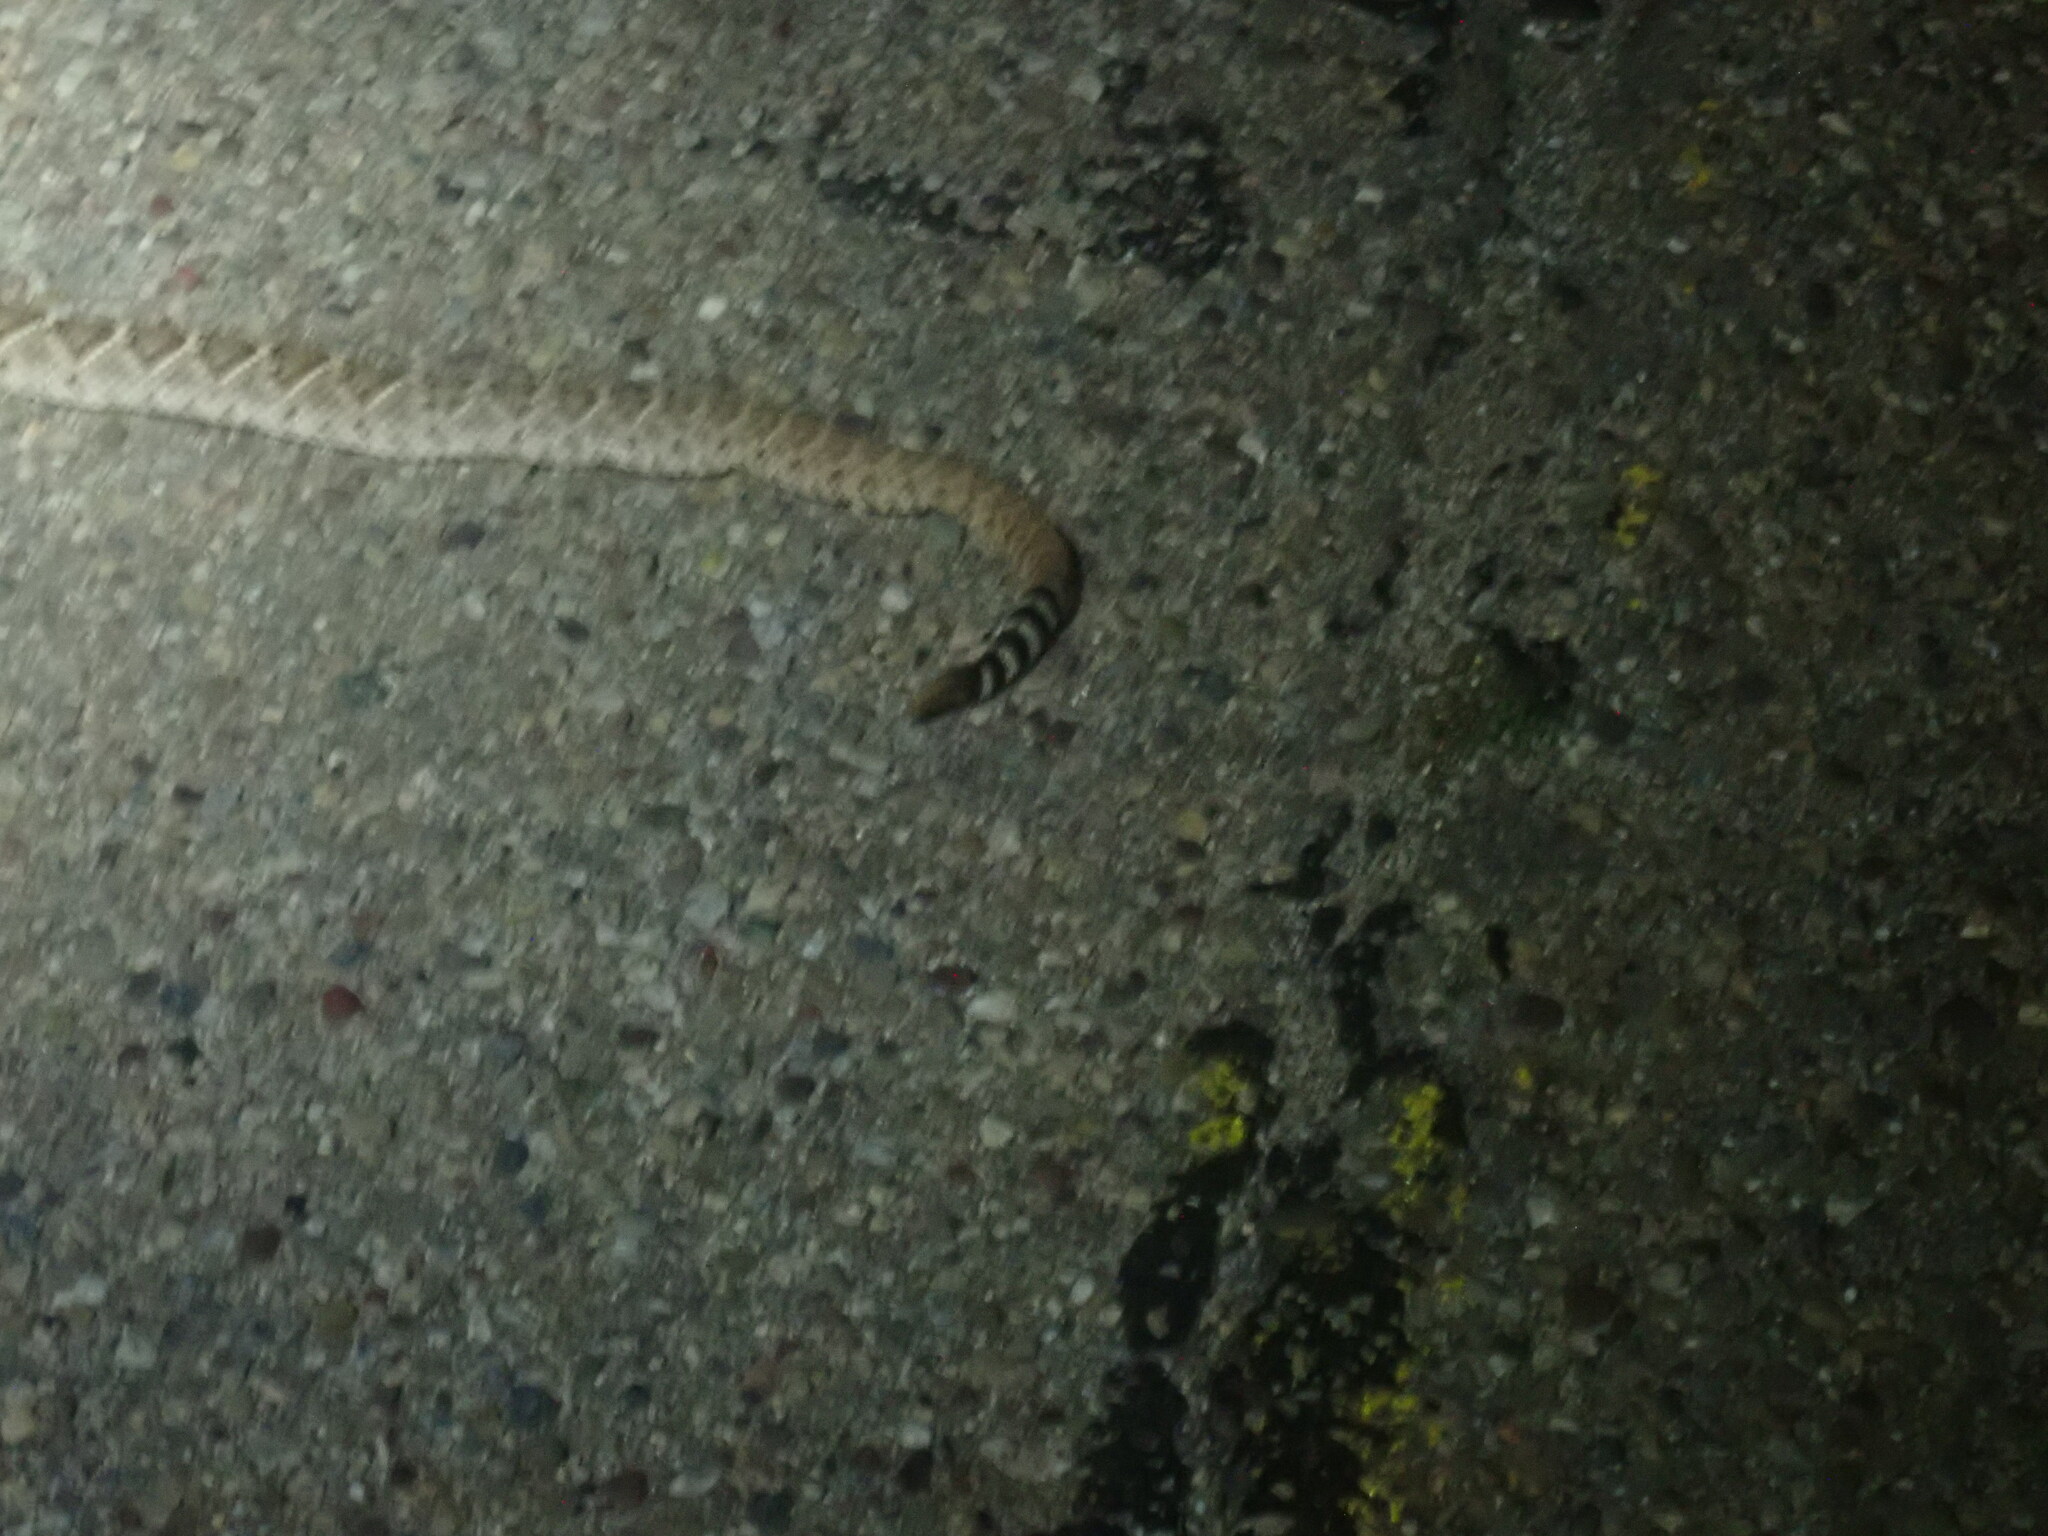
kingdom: Animalia
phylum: Chordata
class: Squamata
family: Viperidae
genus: Crotalus
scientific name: Crotalus atrox
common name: Western diamond-backed rattlesnake
